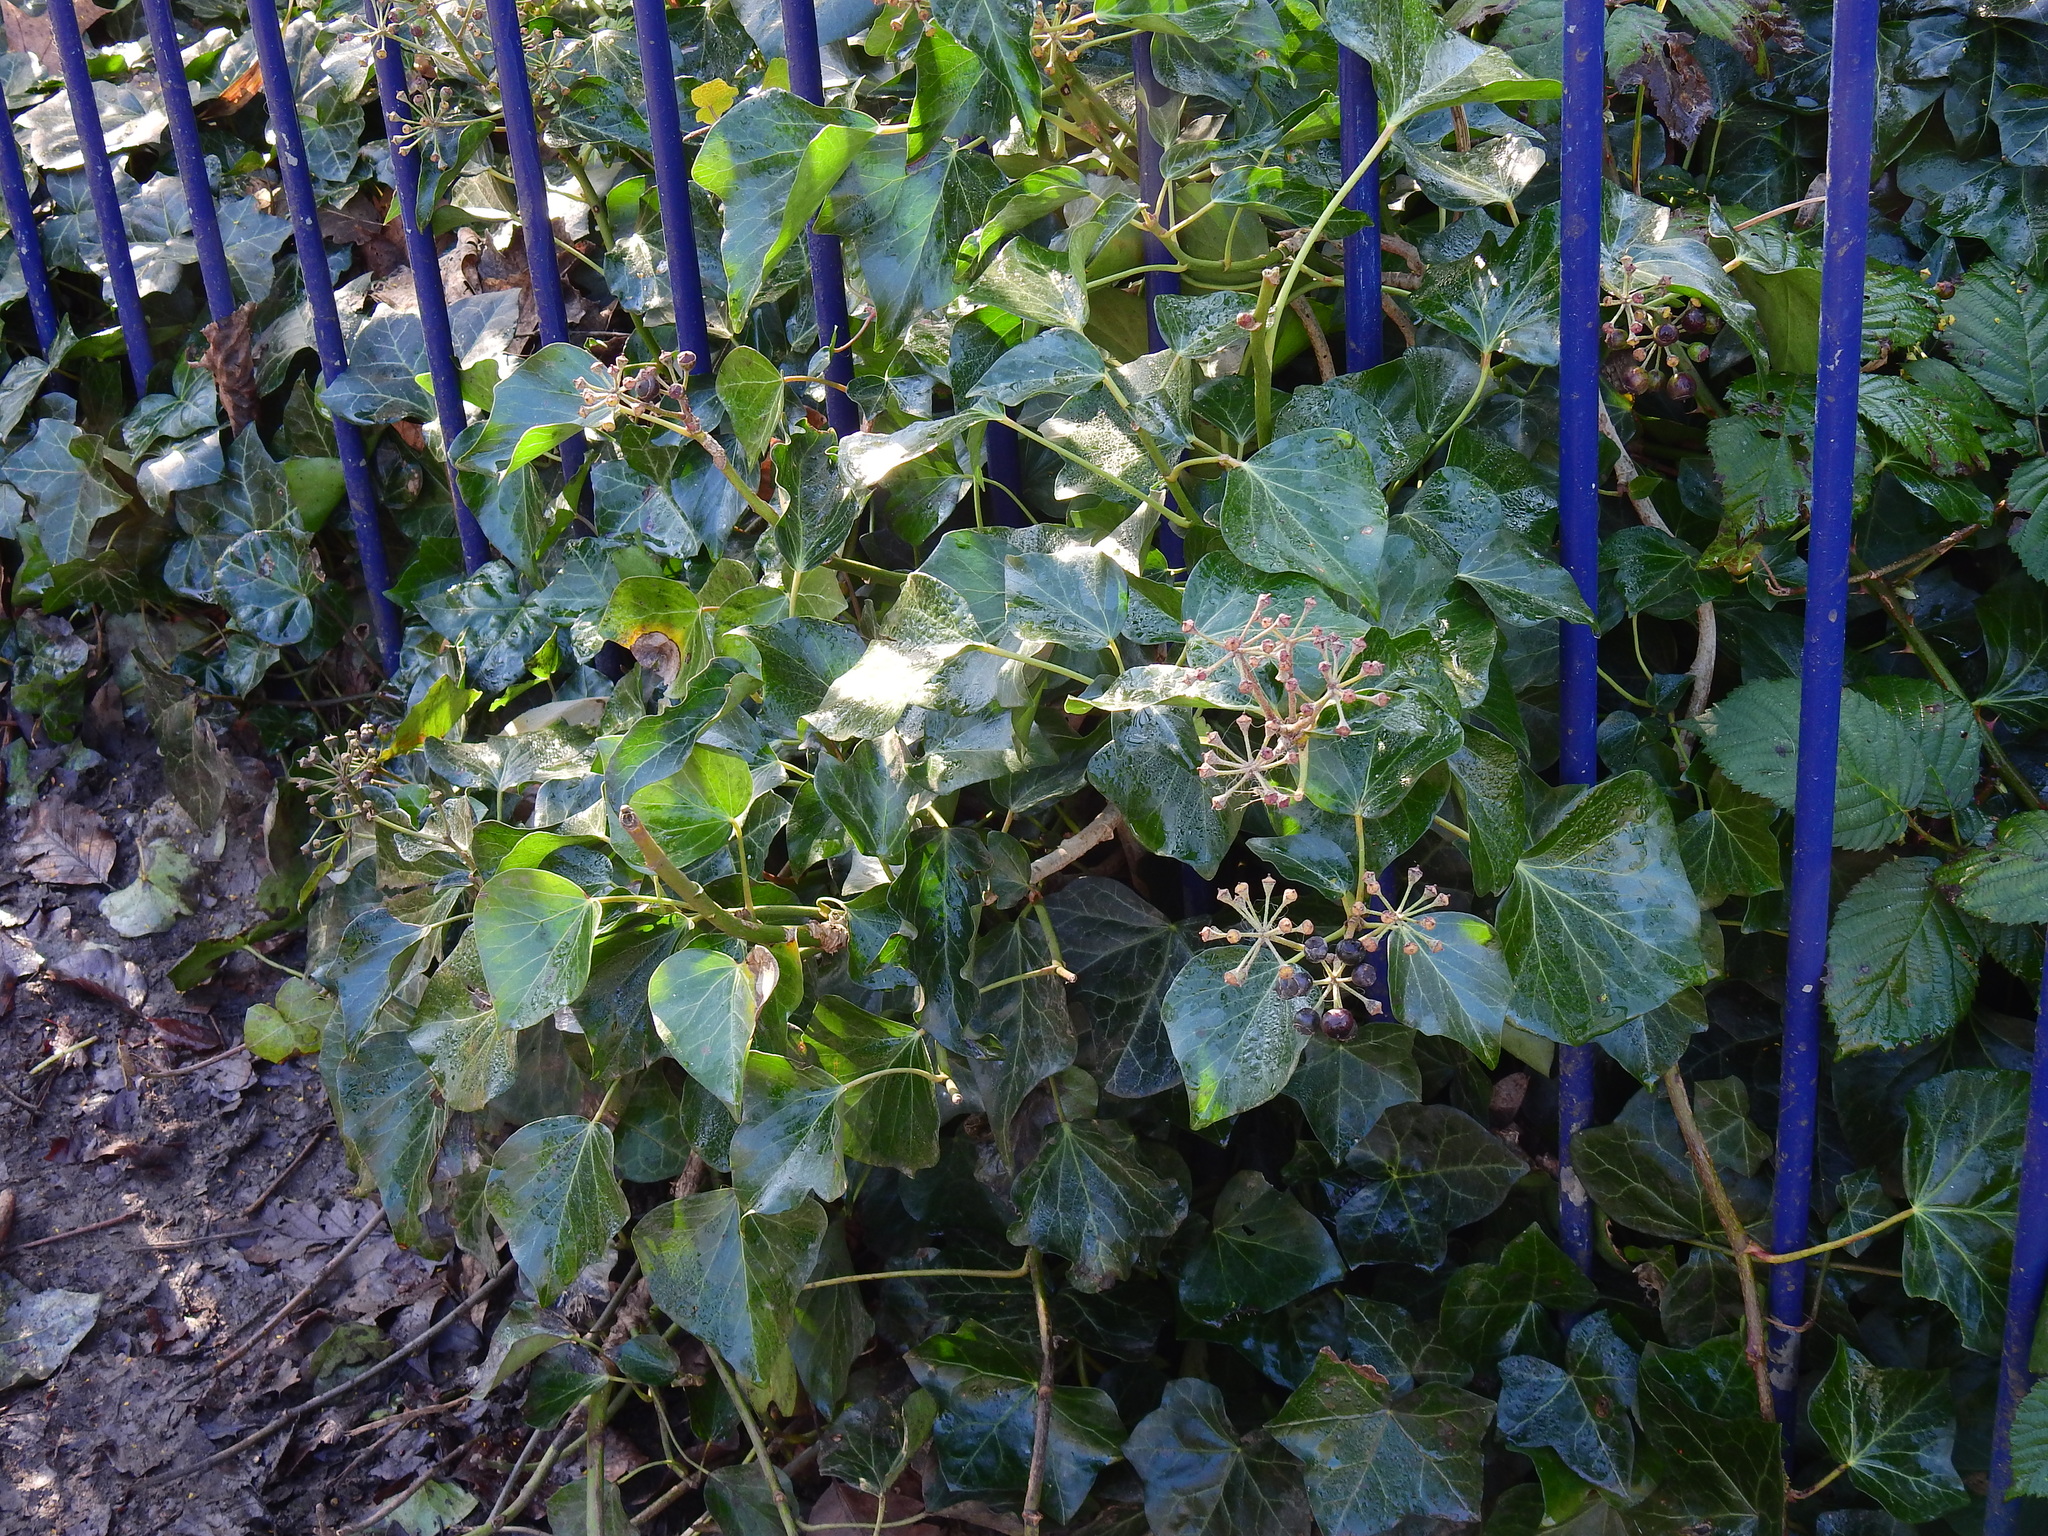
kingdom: Plantae
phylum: Tracheophyta
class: Magnoliopsida
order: Apiales
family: Araliaceae
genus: Hedera
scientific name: Hedera helix
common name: Ivy
